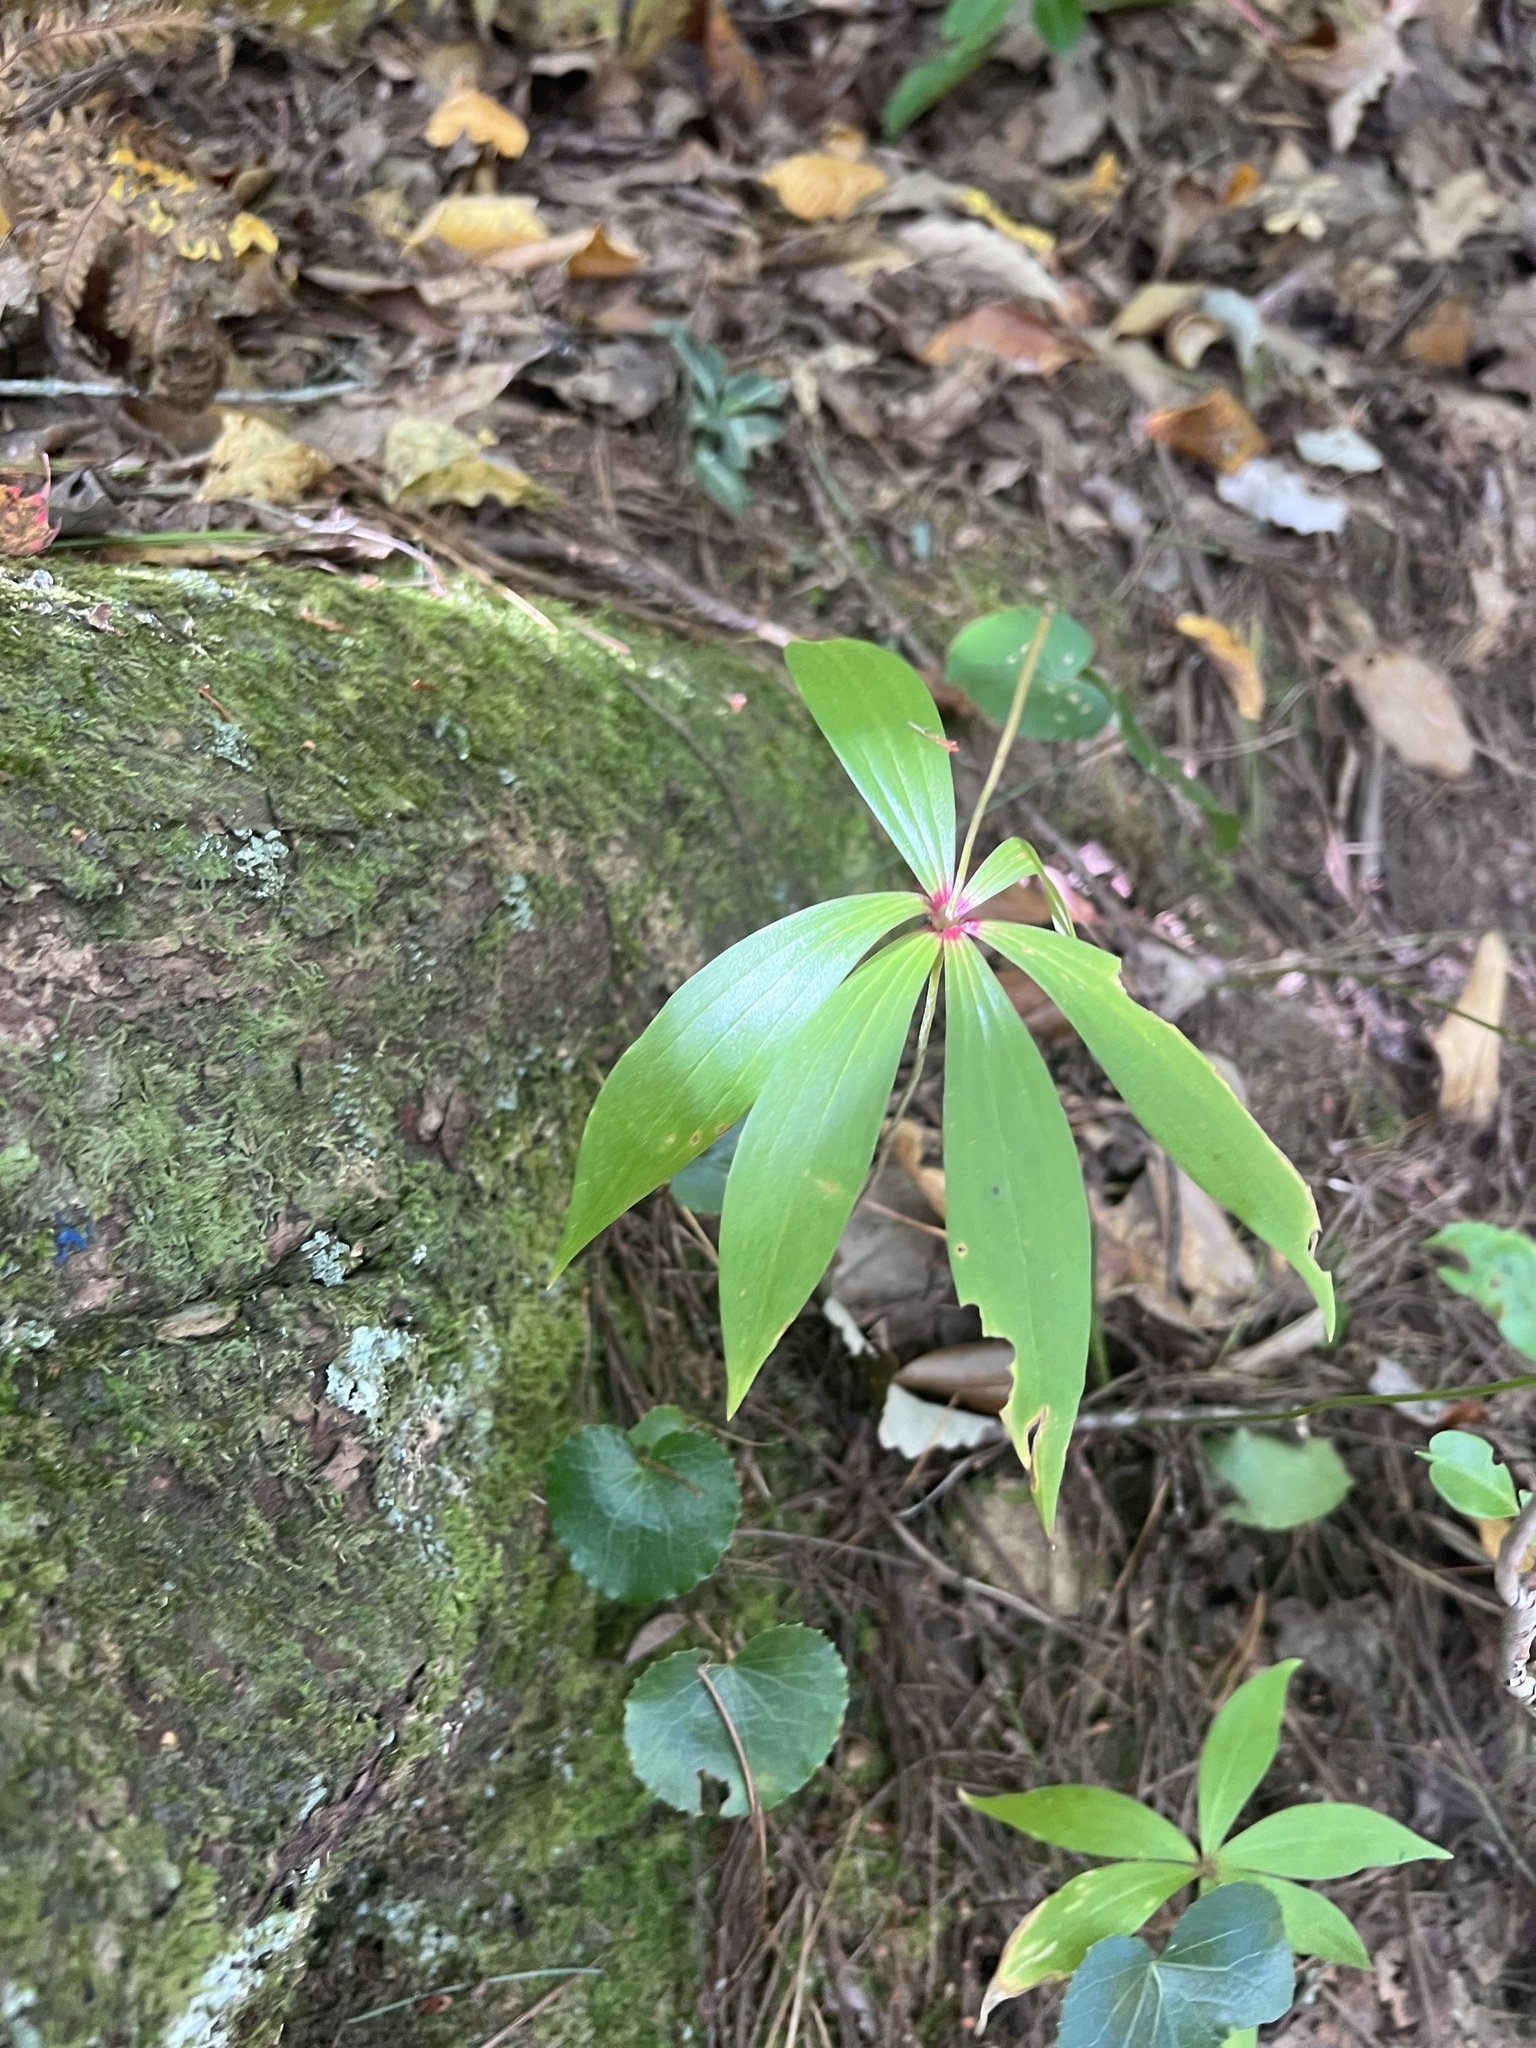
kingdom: Plantae
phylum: Tracheophyta
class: Liliopsida
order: Liliales
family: Liliaceae
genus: Medeola
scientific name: Medeola virginiana
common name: Indian cucumber-root
